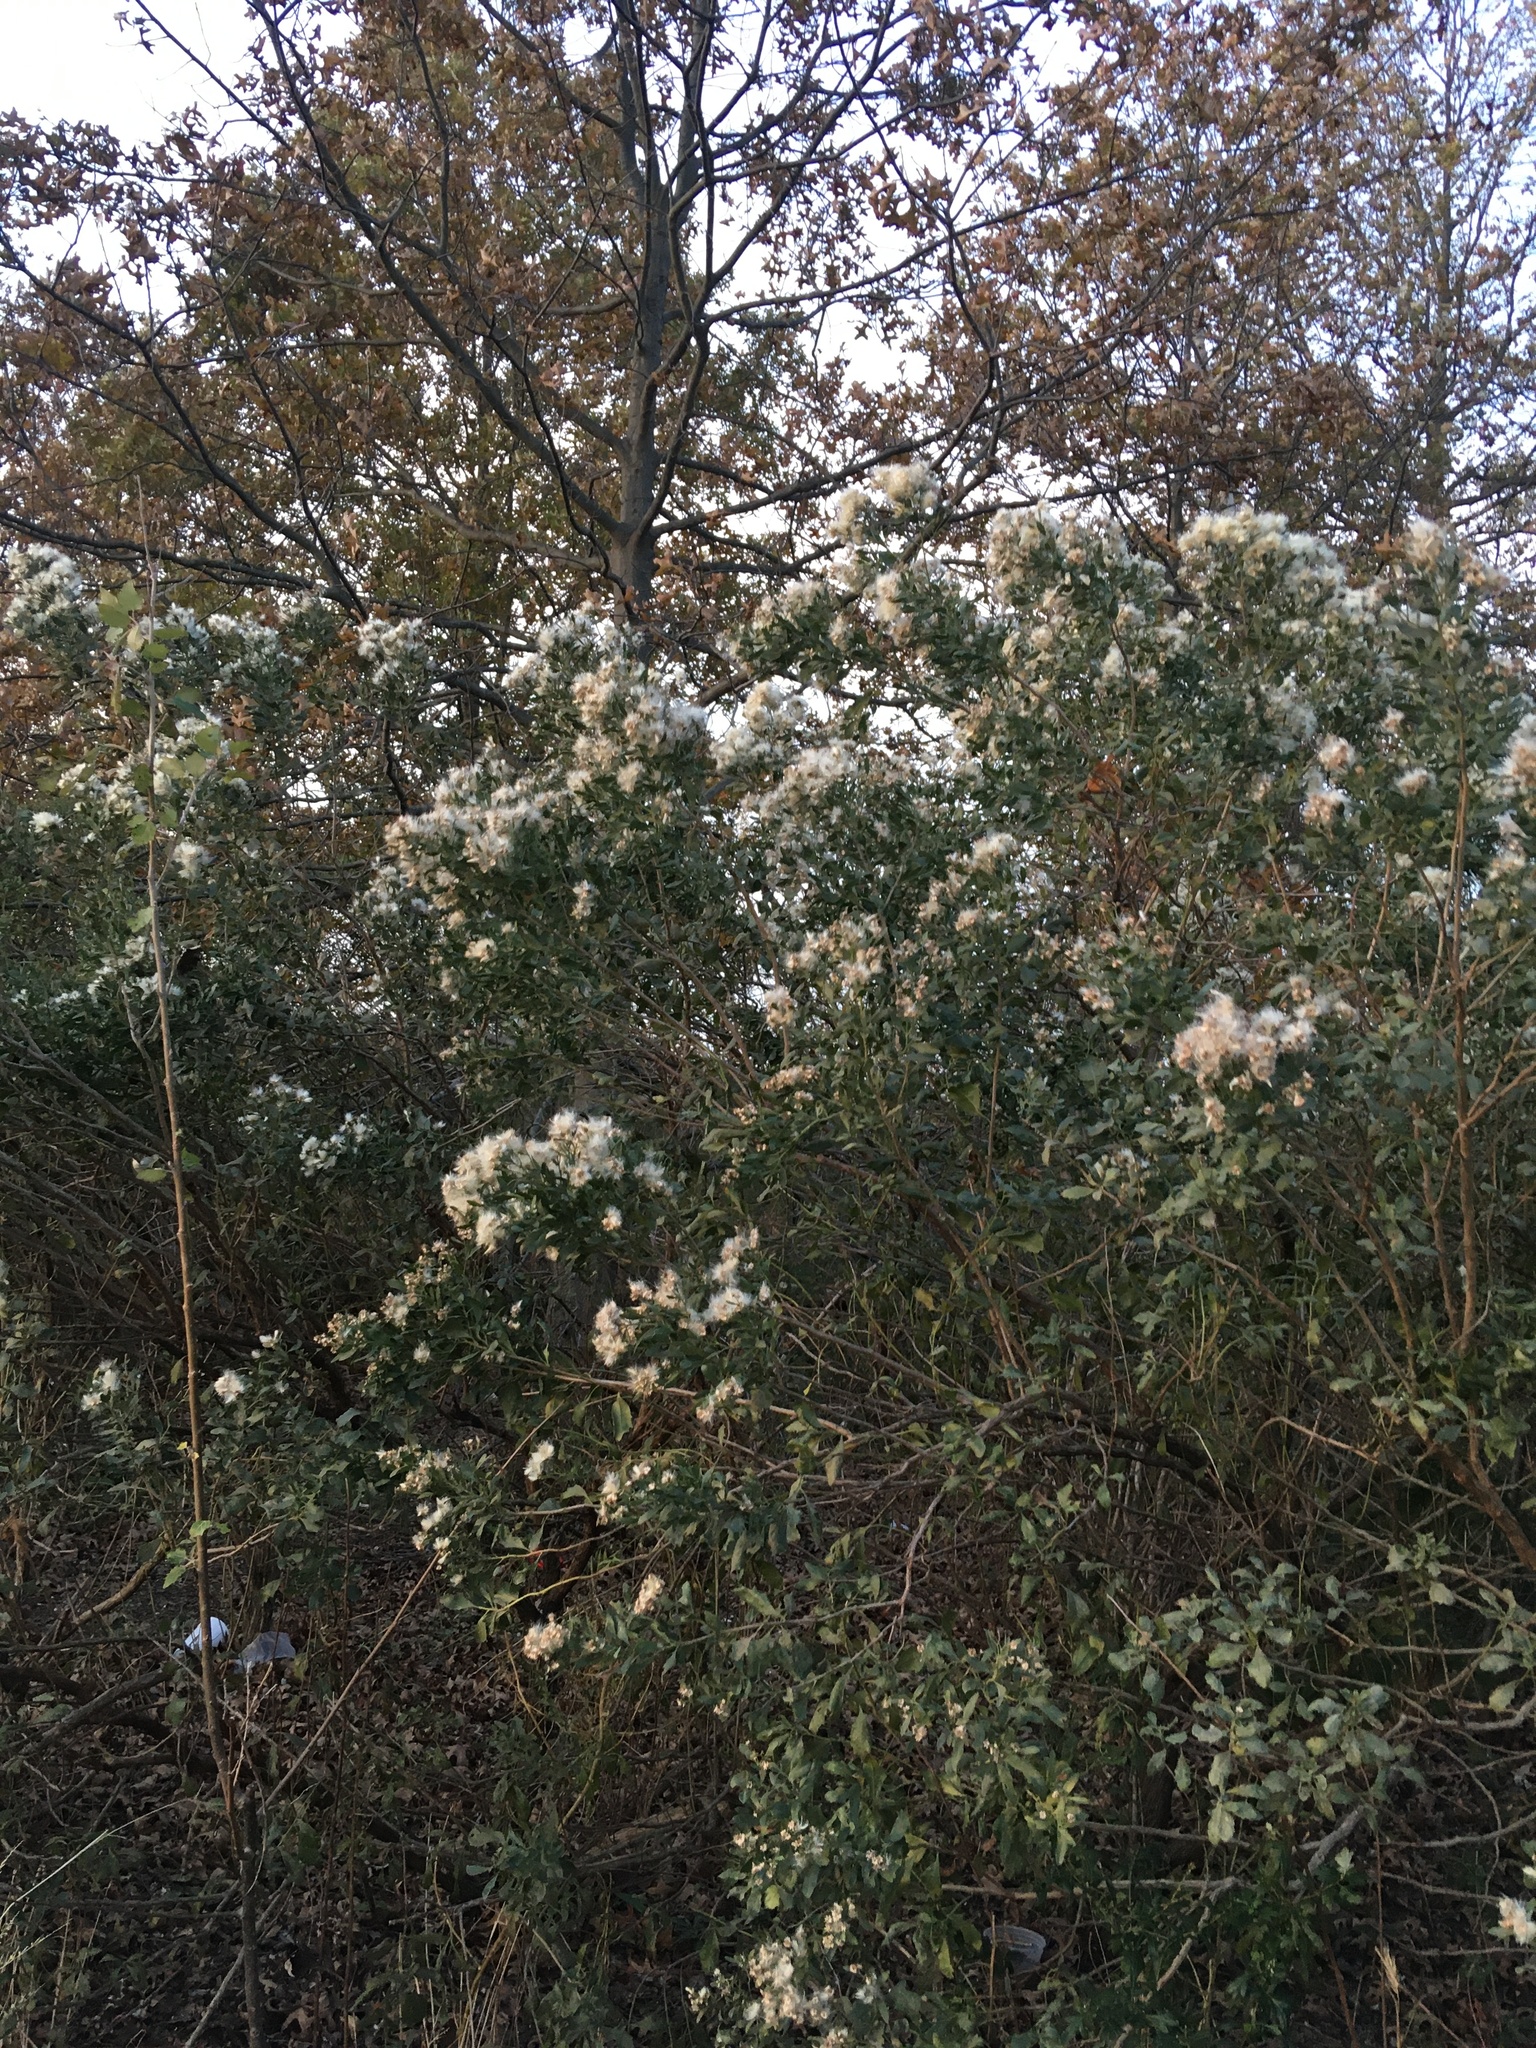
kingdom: Plantae
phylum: Tracheophyta
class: Magnoliopsida
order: Asterales
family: Asteraceae
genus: Baccharis
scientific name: Baccharis halimifolia
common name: Eastern baccharis
